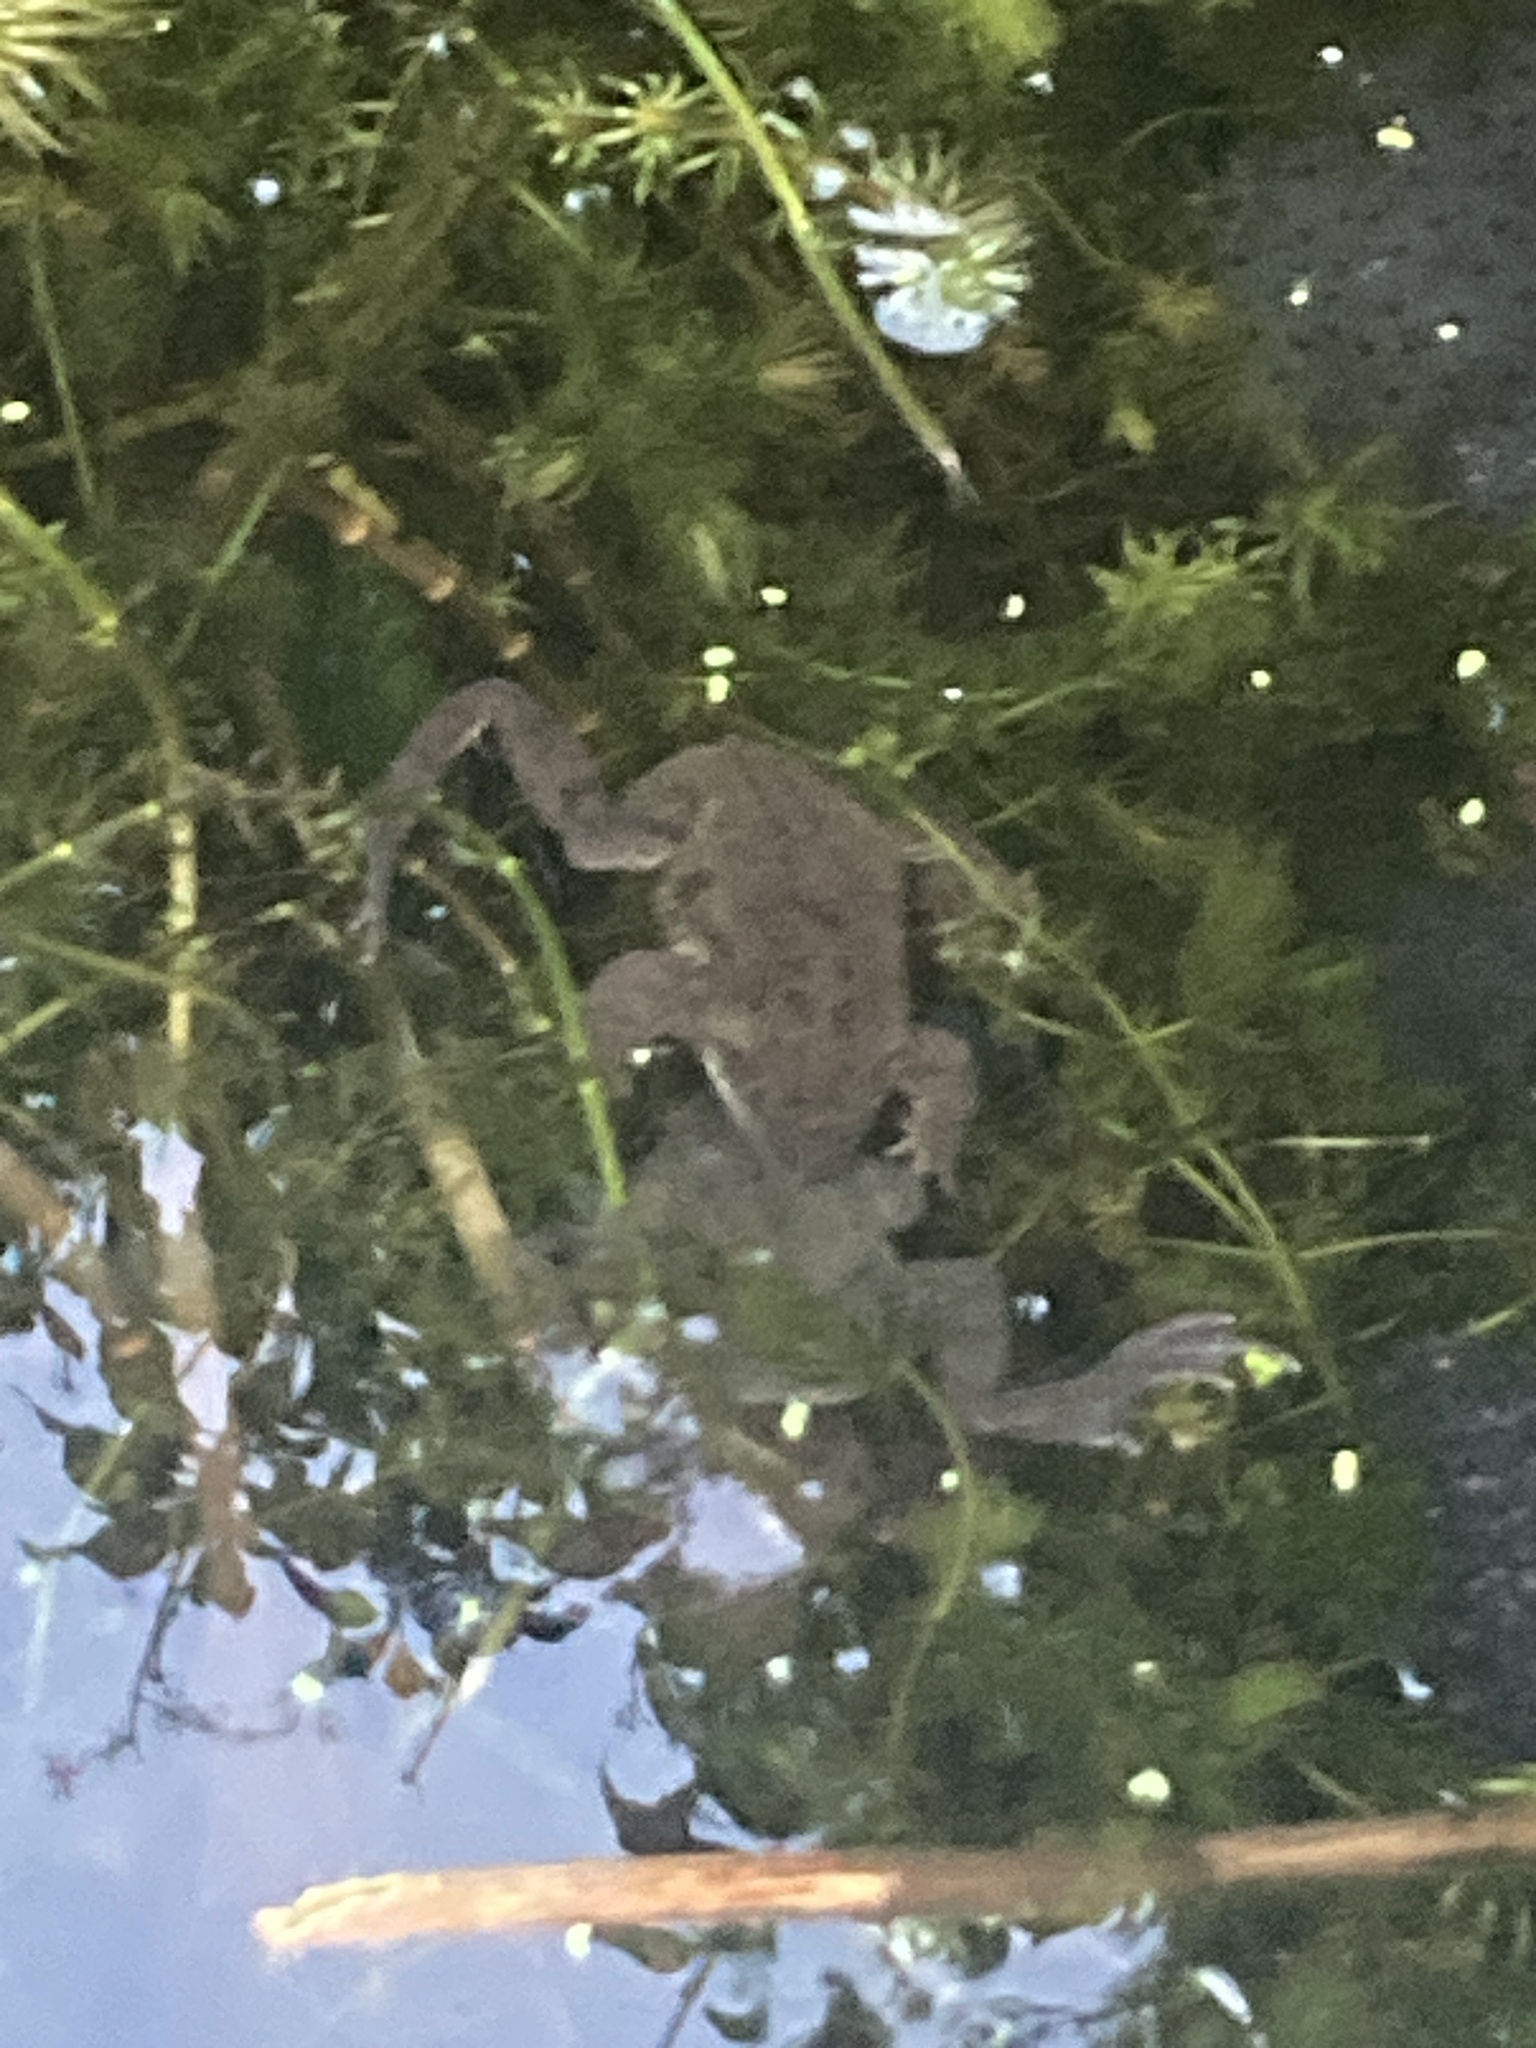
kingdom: Animalia
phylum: Chordata
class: Amphibia
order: Anura
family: Ranidae
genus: Rana
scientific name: Rana temporaria
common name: Common frog
